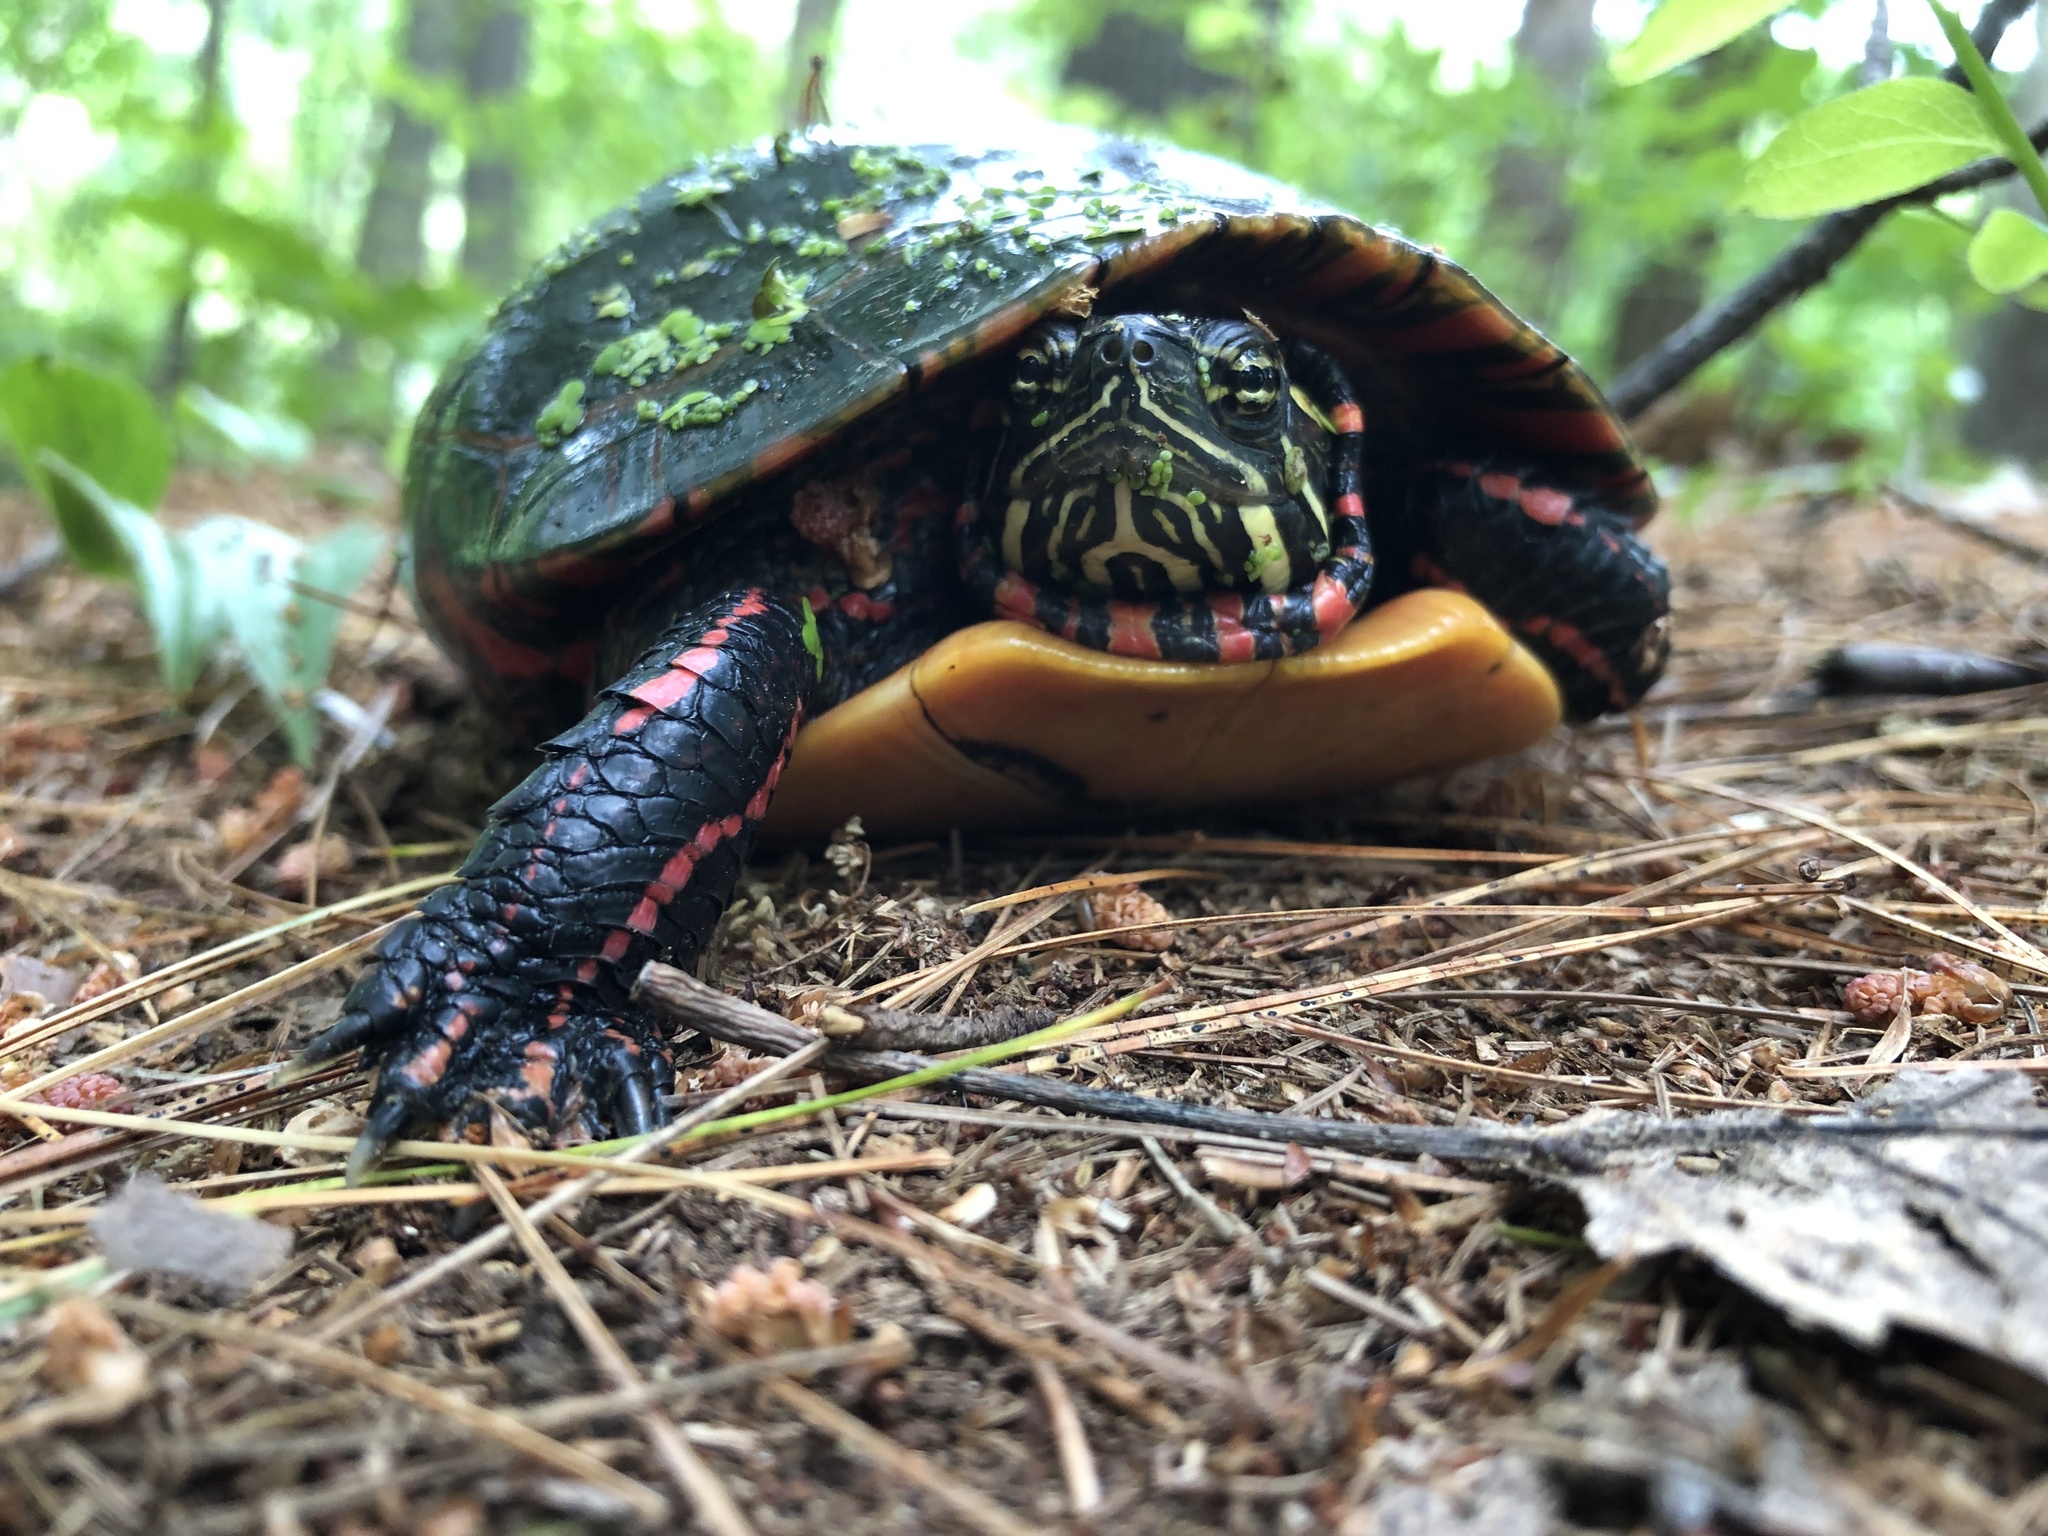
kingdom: Animalia
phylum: Chordata
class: Testudines
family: Emydidae
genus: Chrysemys
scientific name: Chrysemys picta
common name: Painted turtle
